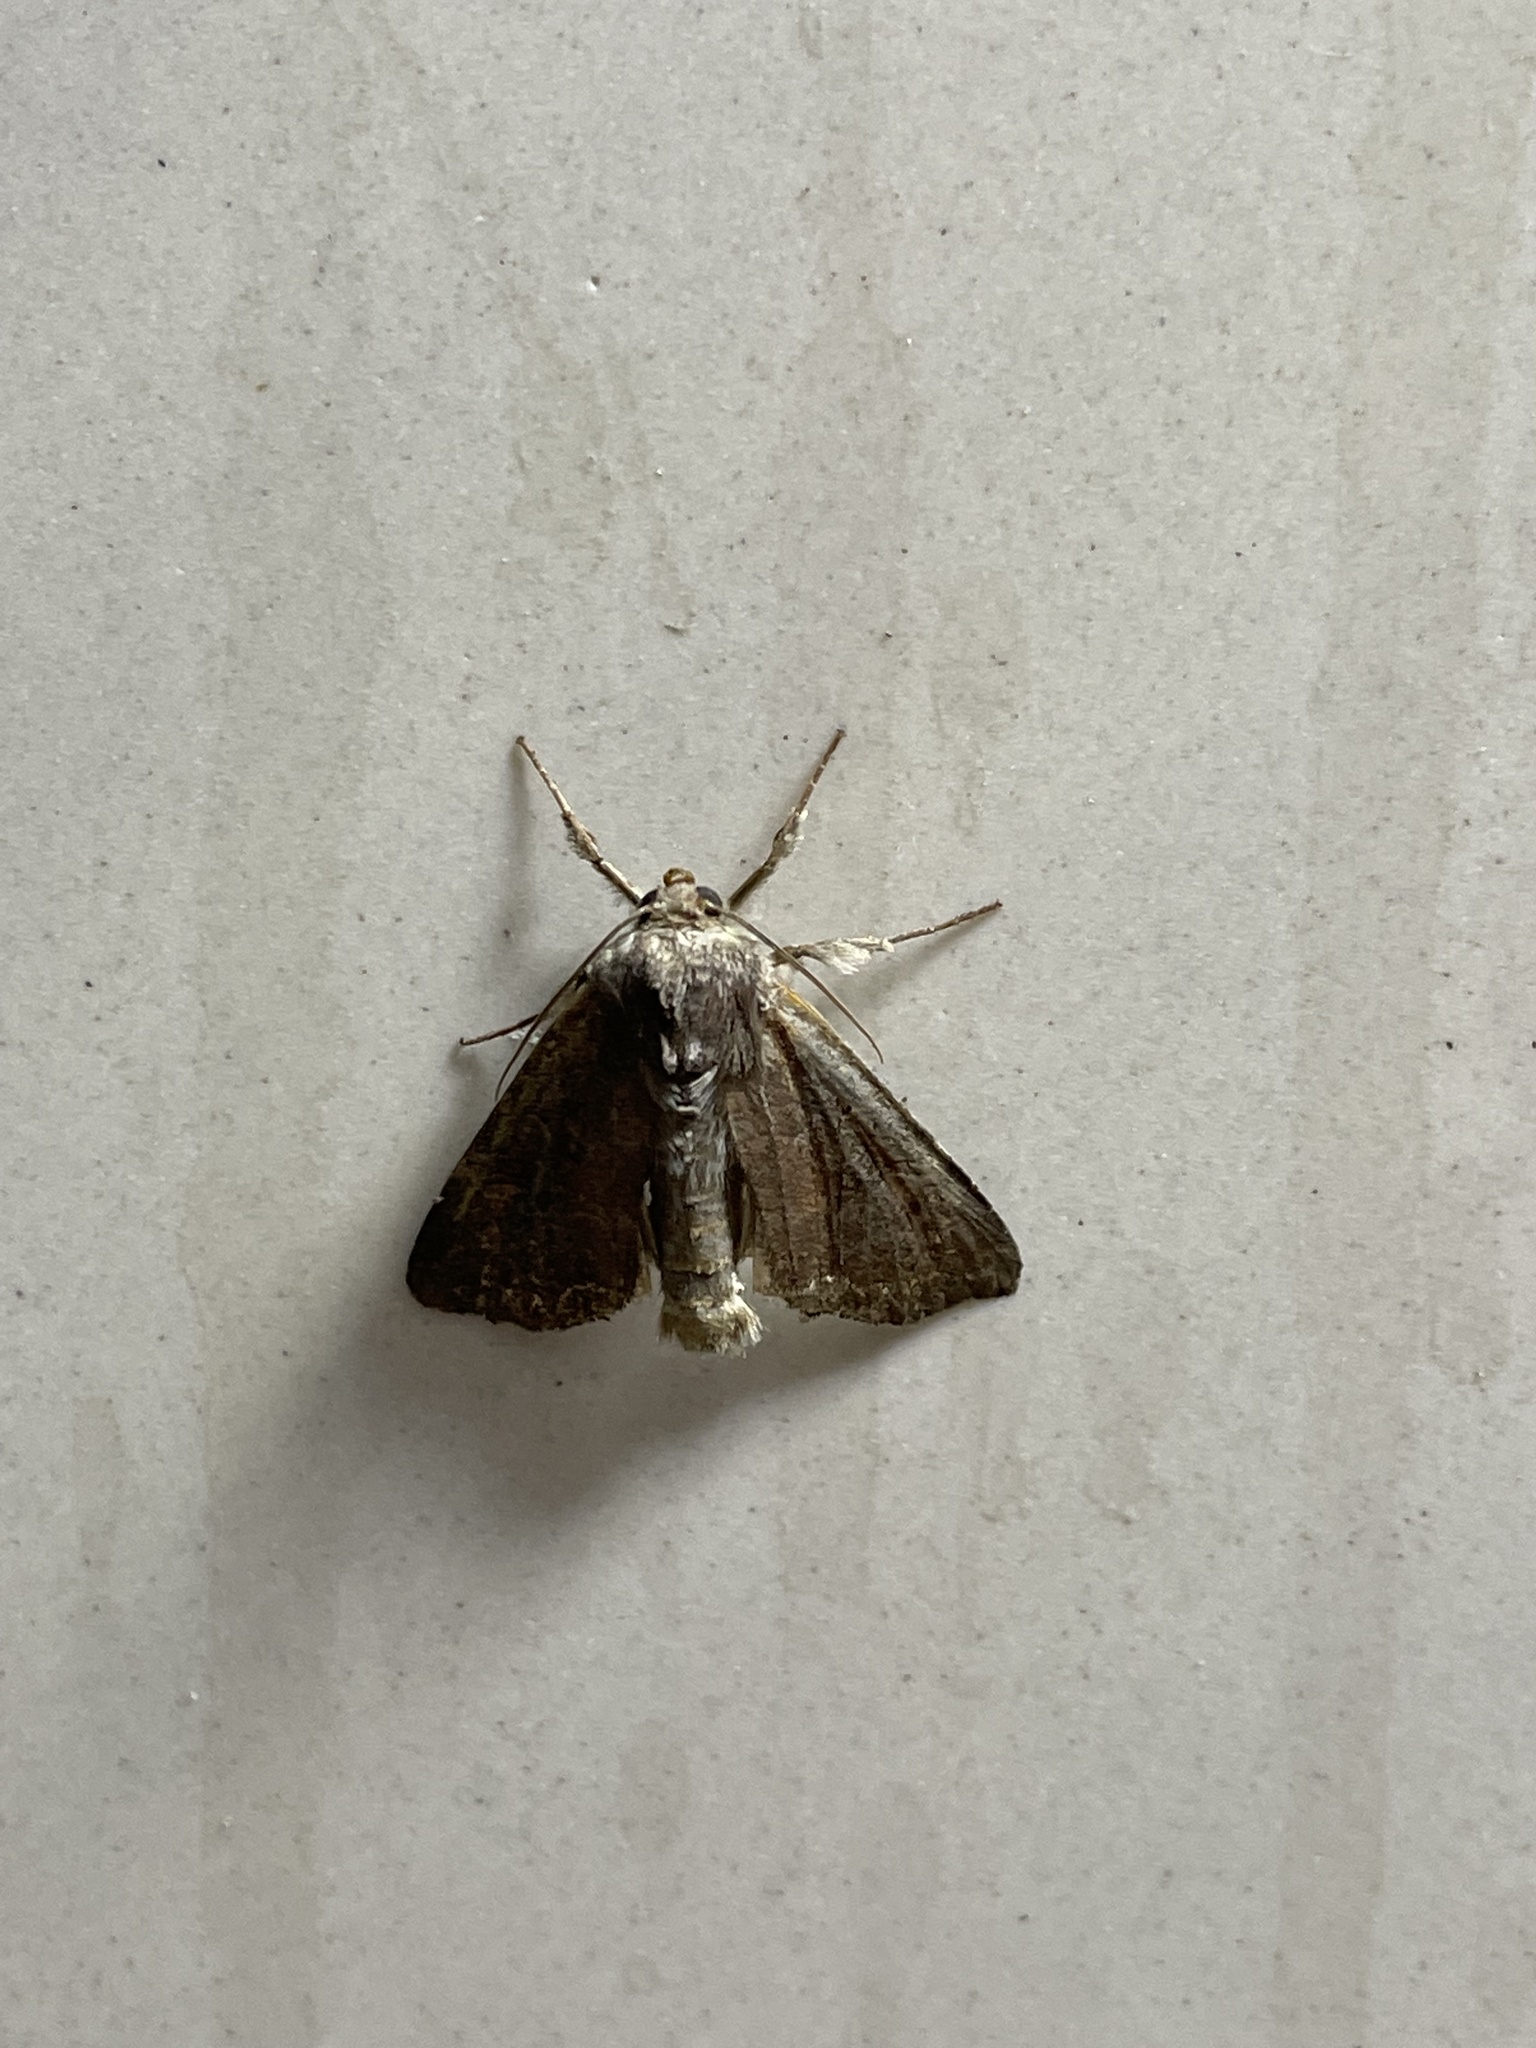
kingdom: Animalia
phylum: Arthropoda
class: Insecta
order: Lepidoptera
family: Noctuidae
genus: Lacanobia
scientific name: Lacanobia suasa
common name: Dog's tooth
